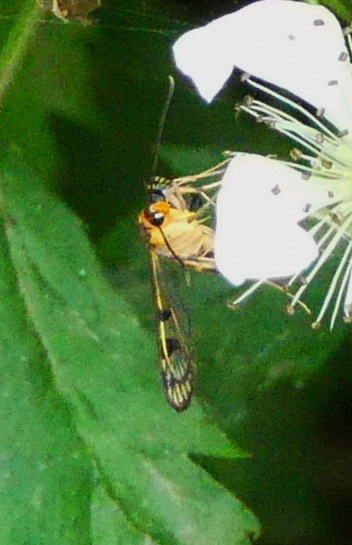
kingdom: Animalia
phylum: Arthropoda
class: Insecta
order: Lepidoptera
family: Sesiidae
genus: Synanthedon
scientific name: Synanthedon acerni
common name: Maple callus borer moth
